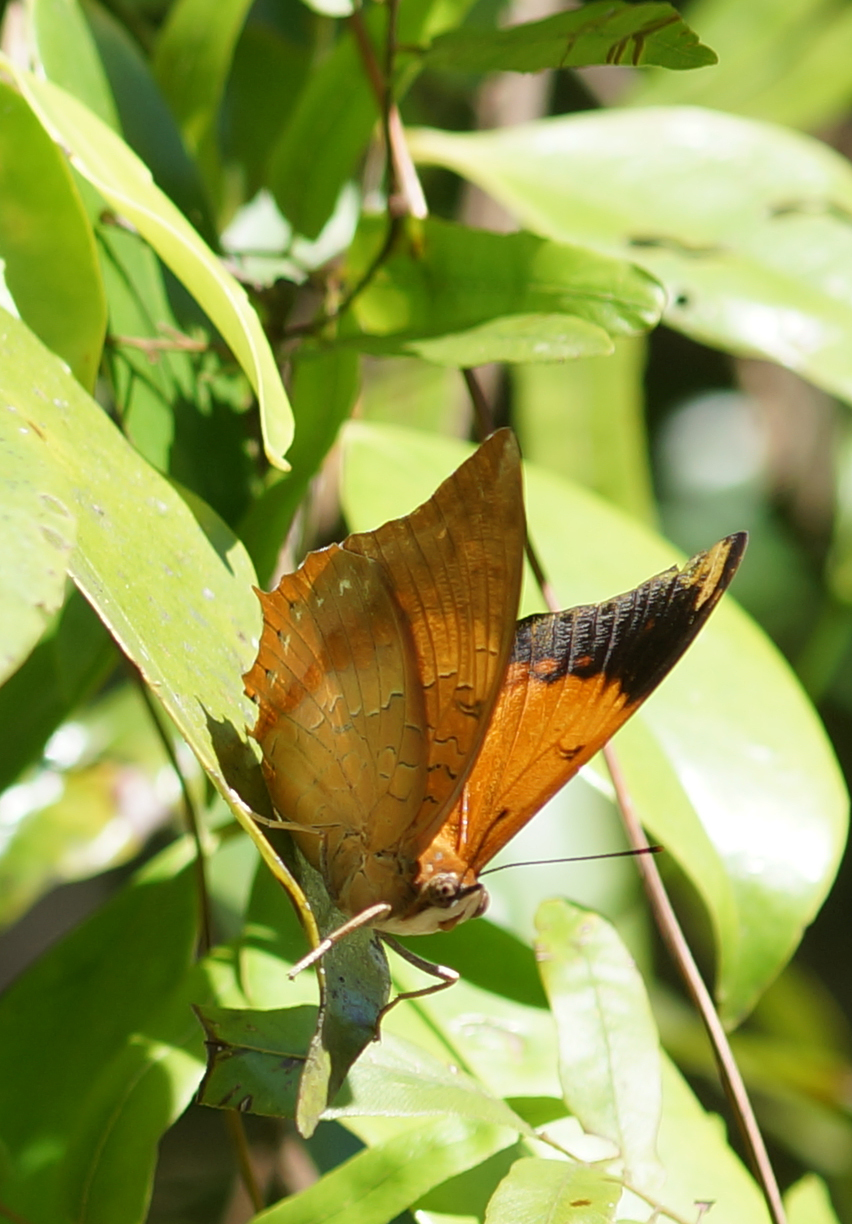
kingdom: Animalia
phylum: Arthropoda
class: Insecta
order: Lepidoptera
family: Nymphalidae
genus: Charaxes
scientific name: Charaxes bernardus
